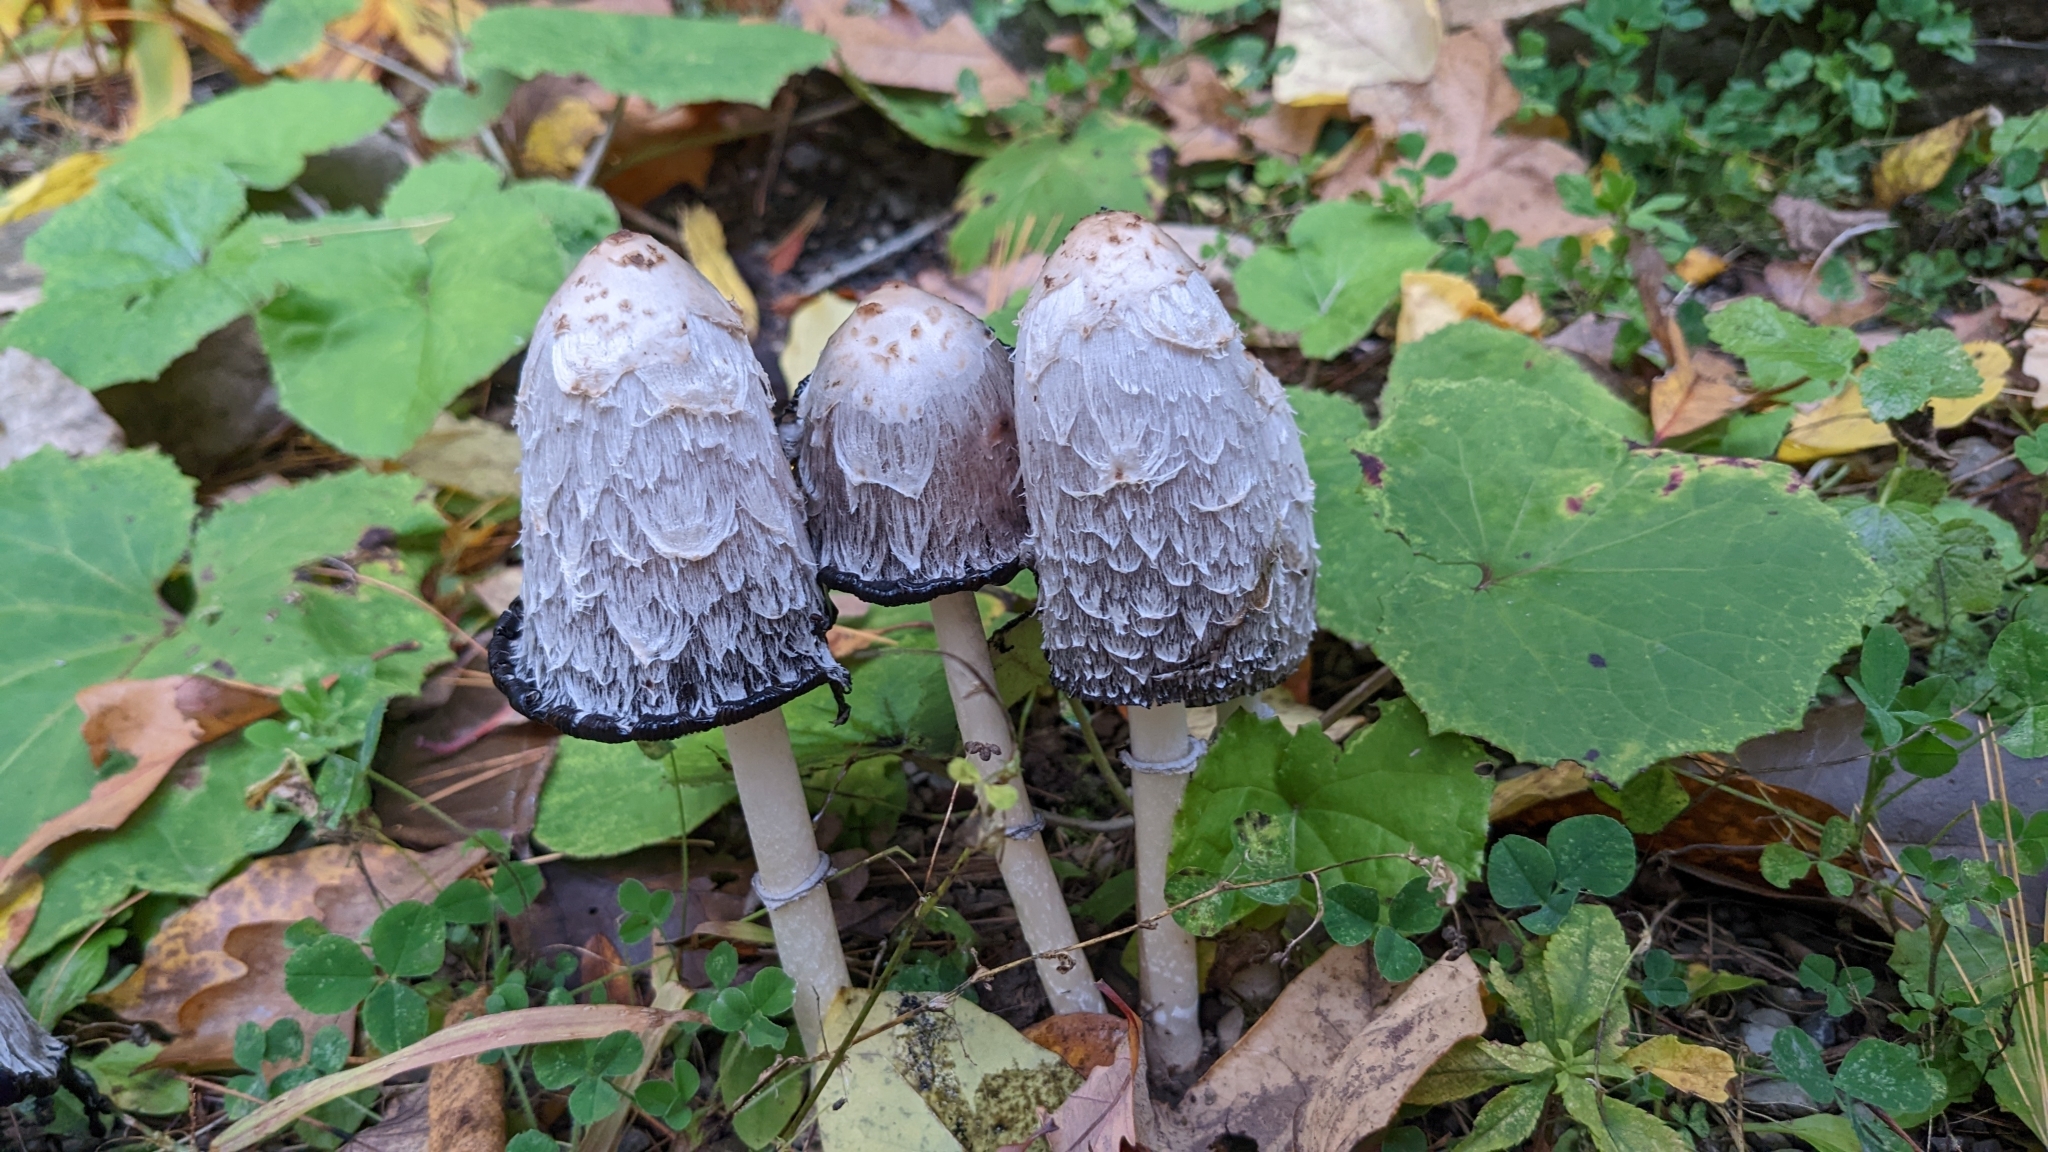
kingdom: Fungi
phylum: Basidiomycota
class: Agaricomycetes
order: Agaricales
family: Agaricaceae
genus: Coprinus
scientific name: Coprinus comatus
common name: Lawyer's wig
